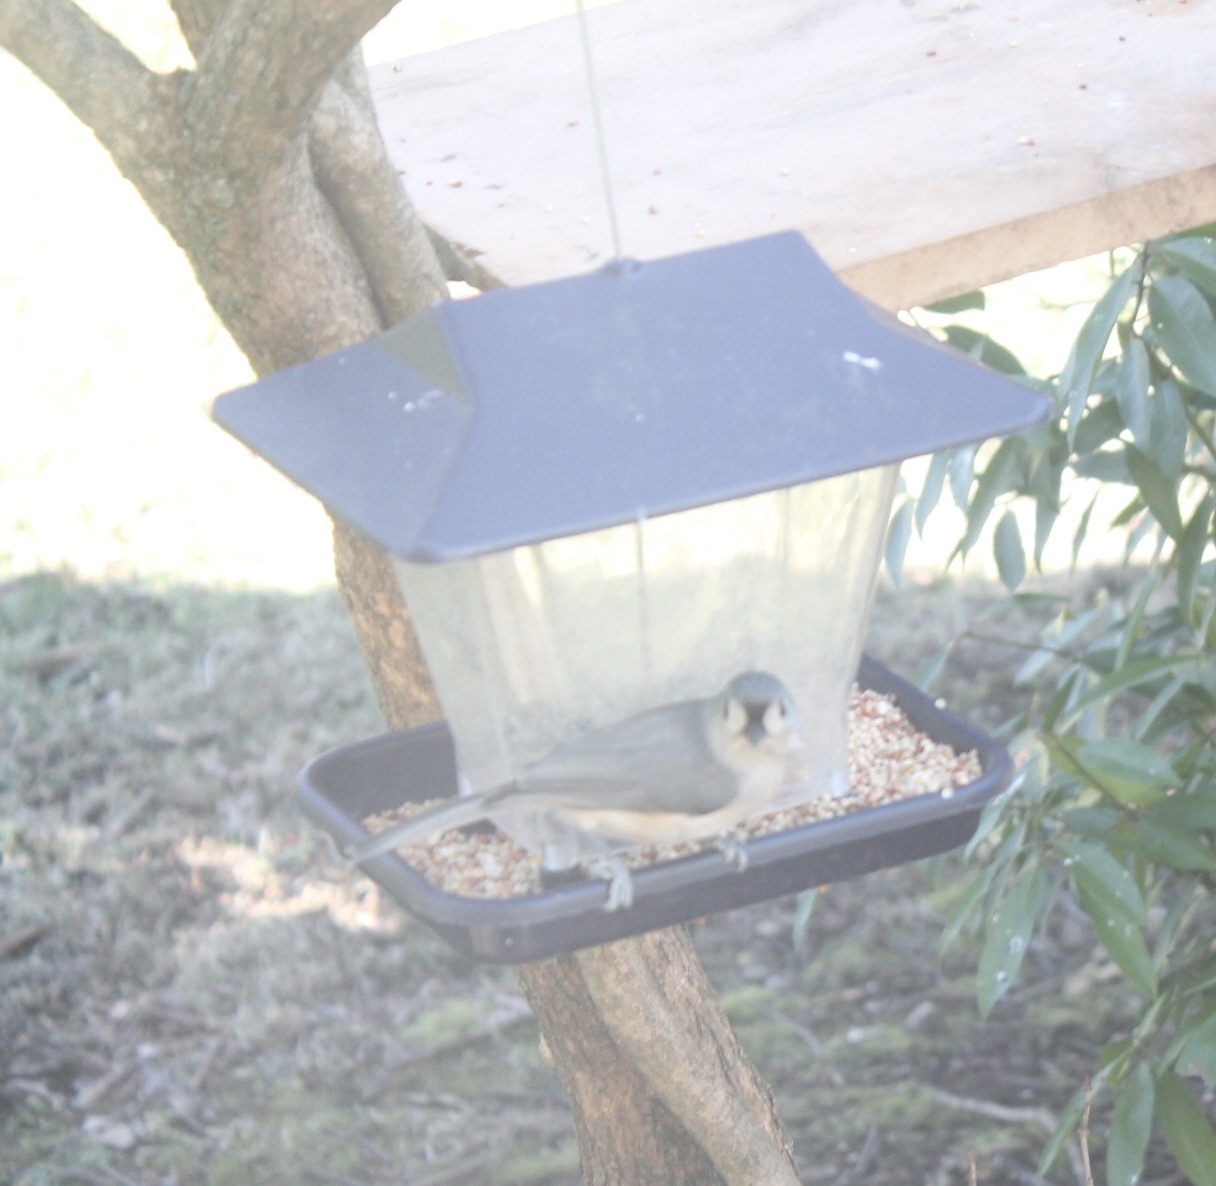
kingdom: Animalia
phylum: Chordata
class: Aves
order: Passeriformes
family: Paridae
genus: Baeolophus
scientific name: Baeolophus bicolor
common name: Tufted titmouse
